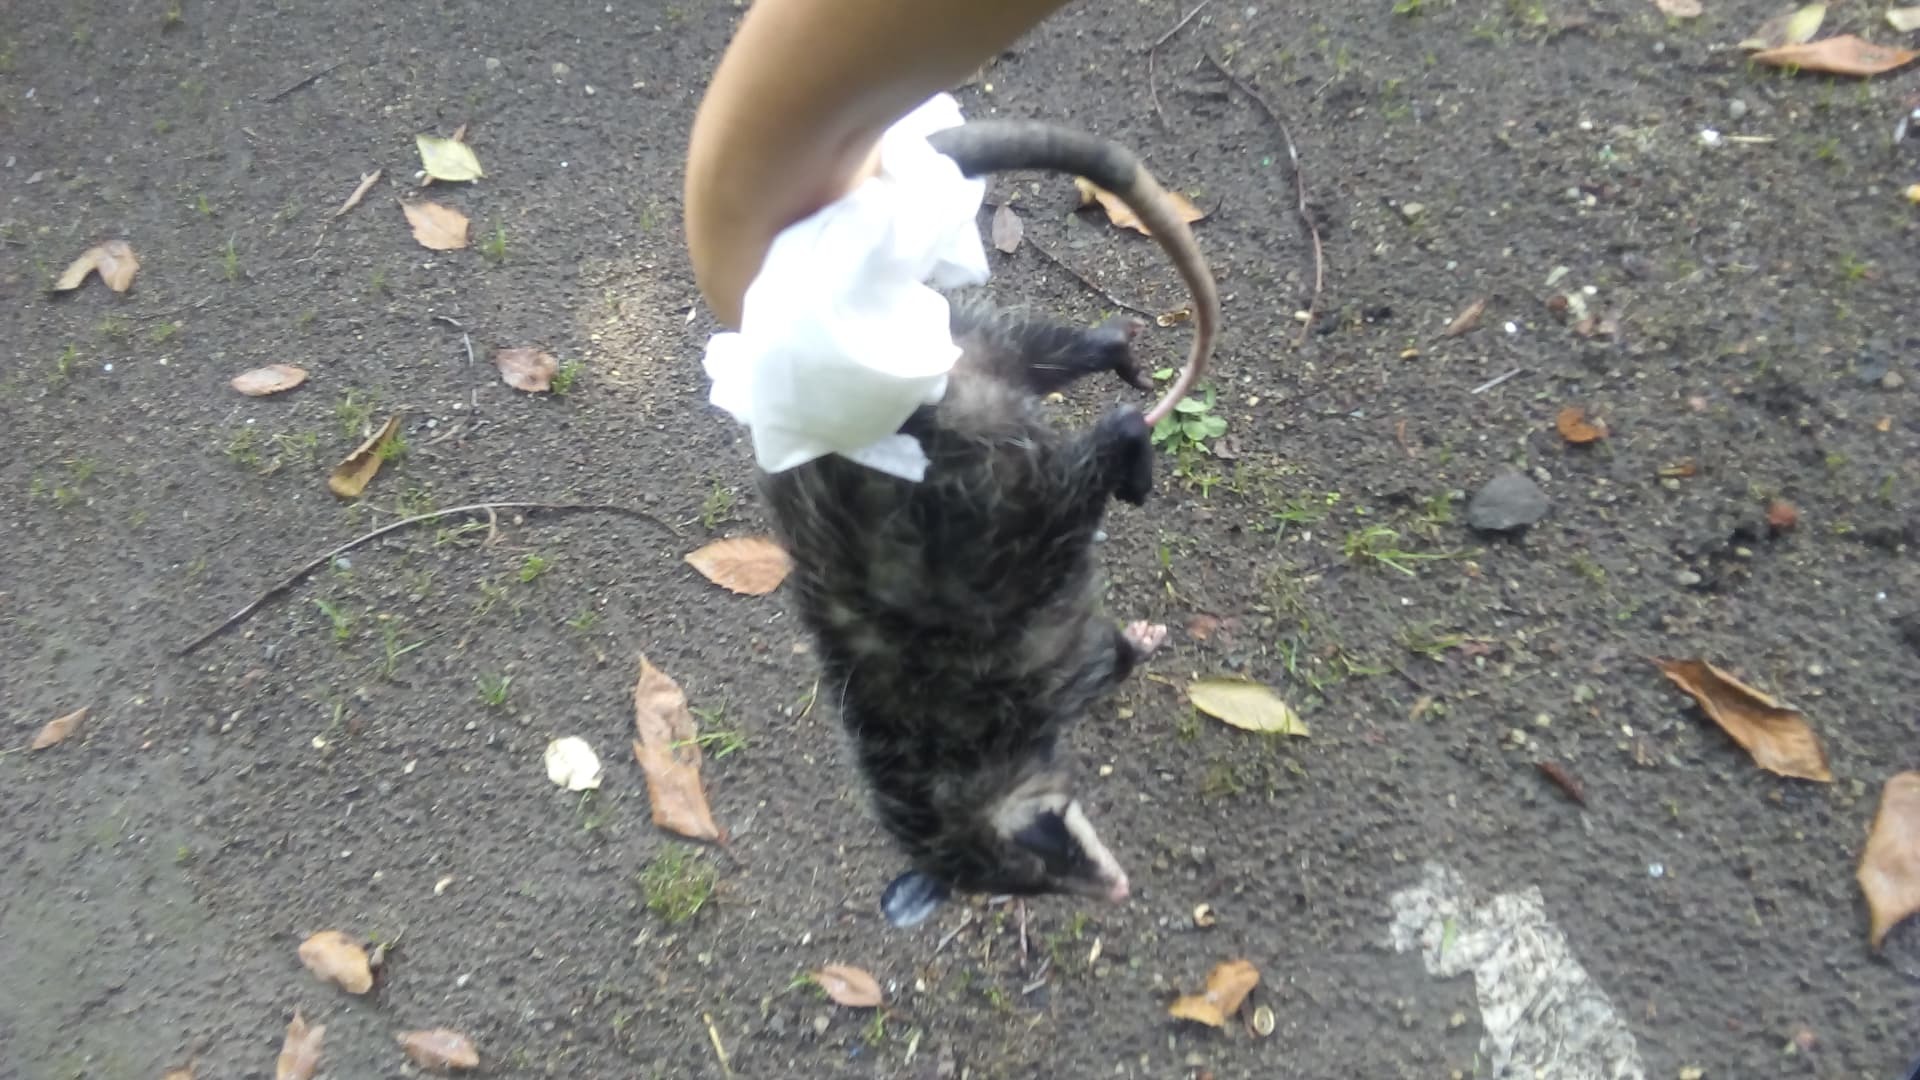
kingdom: Animalia
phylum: Chordata
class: Mammalia
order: Didelphimorphia
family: Didelphidae
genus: Didelphis
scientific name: Didelphis virginiana
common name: Virginia opossum
